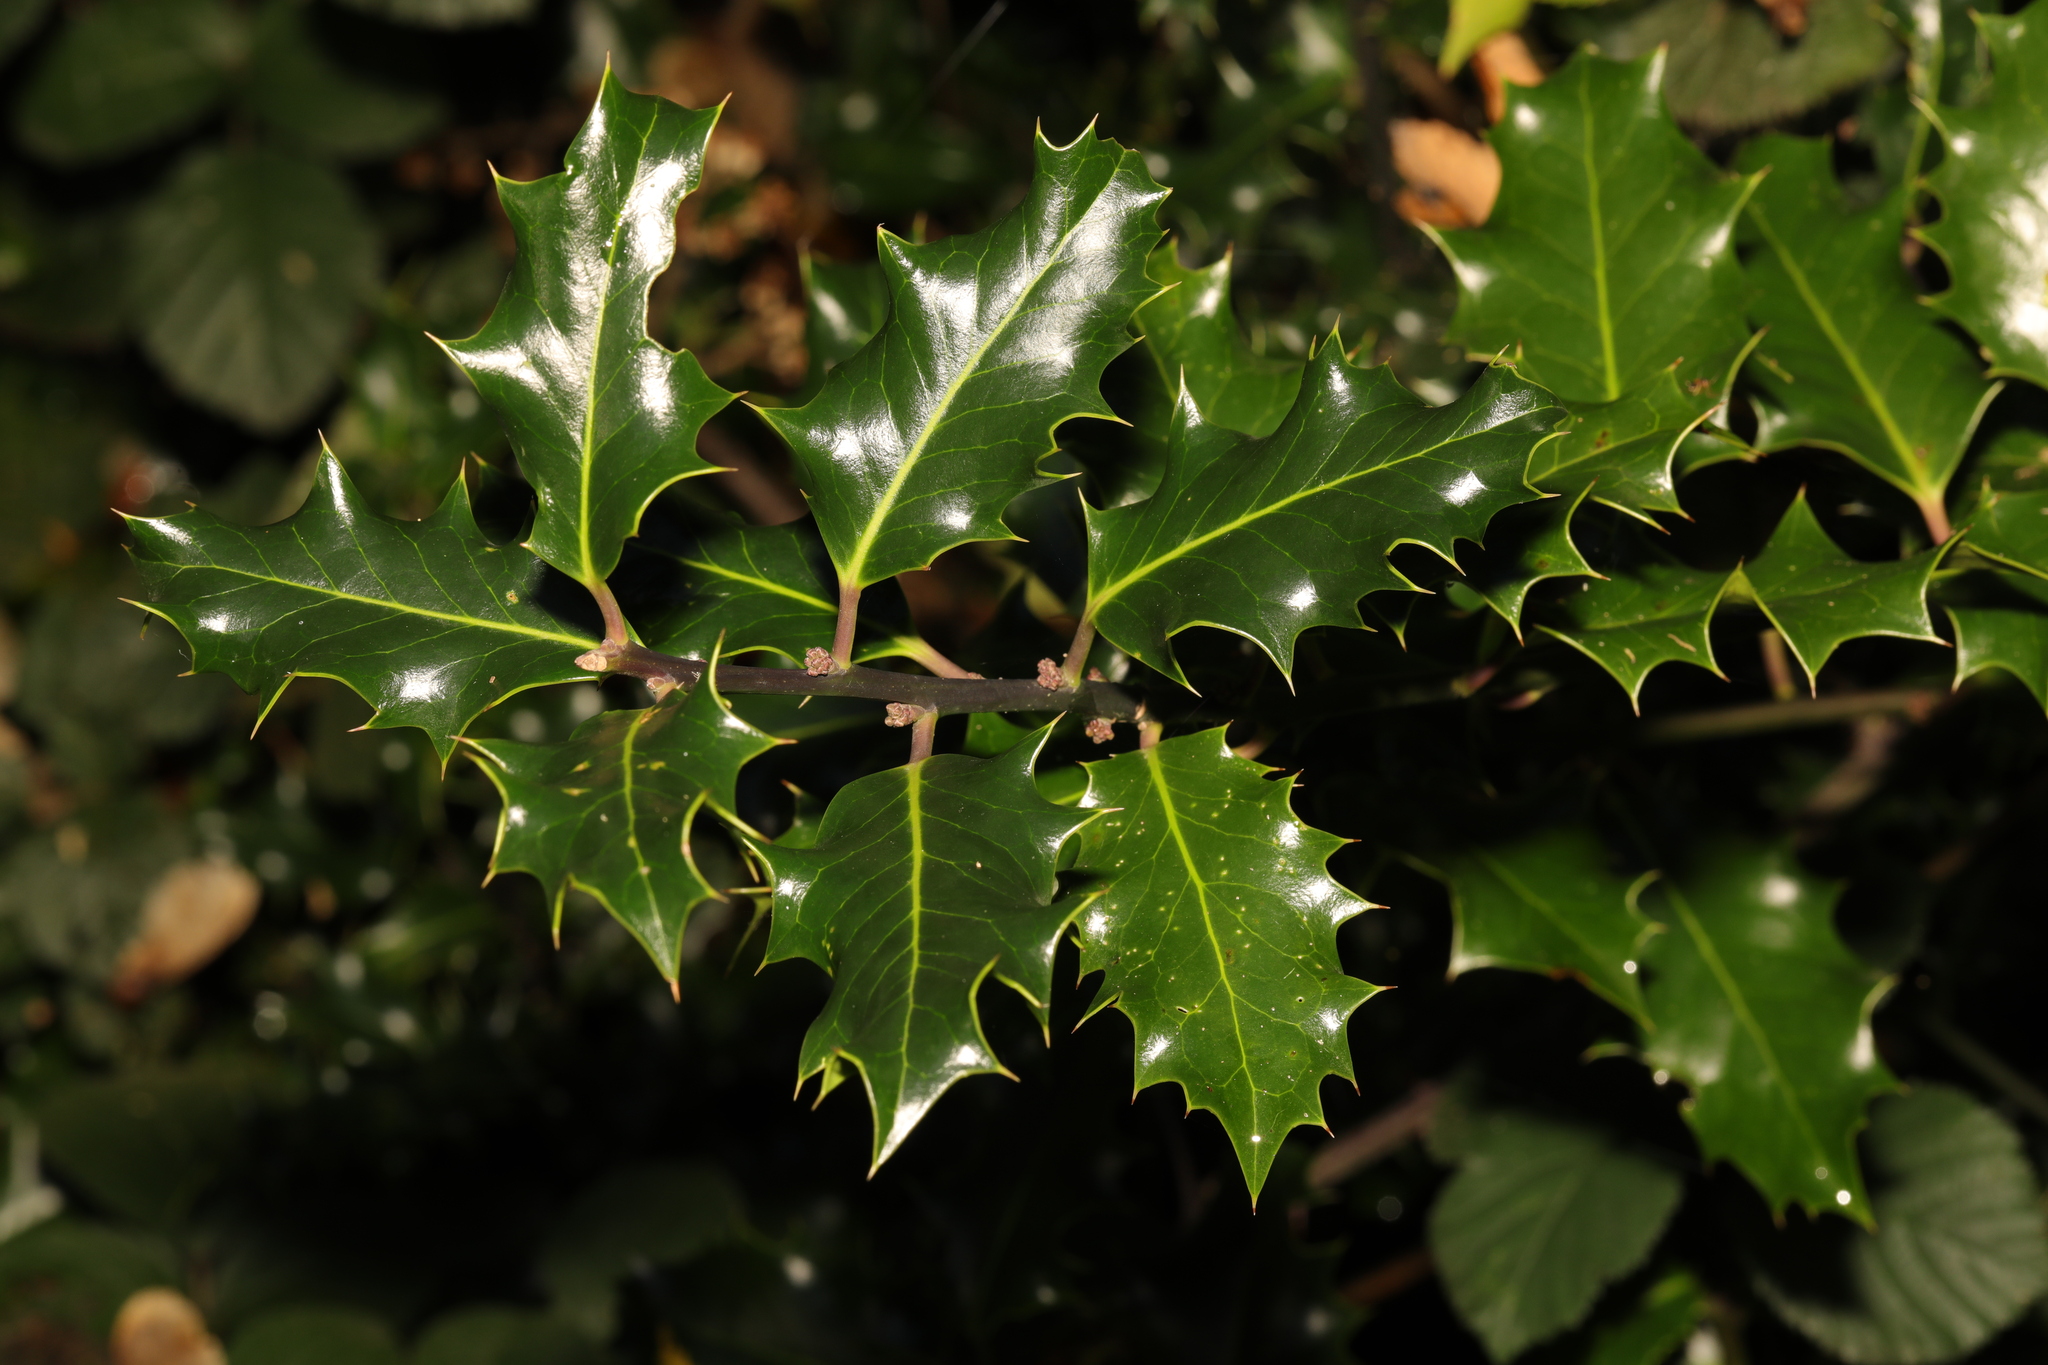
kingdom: Plantae
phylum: Tracheophyta
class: Magnoliopsida
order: Aquifoliales
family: Aquifoliaceae
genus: Ilex
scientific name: Ilex aquifolium
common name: English holly
